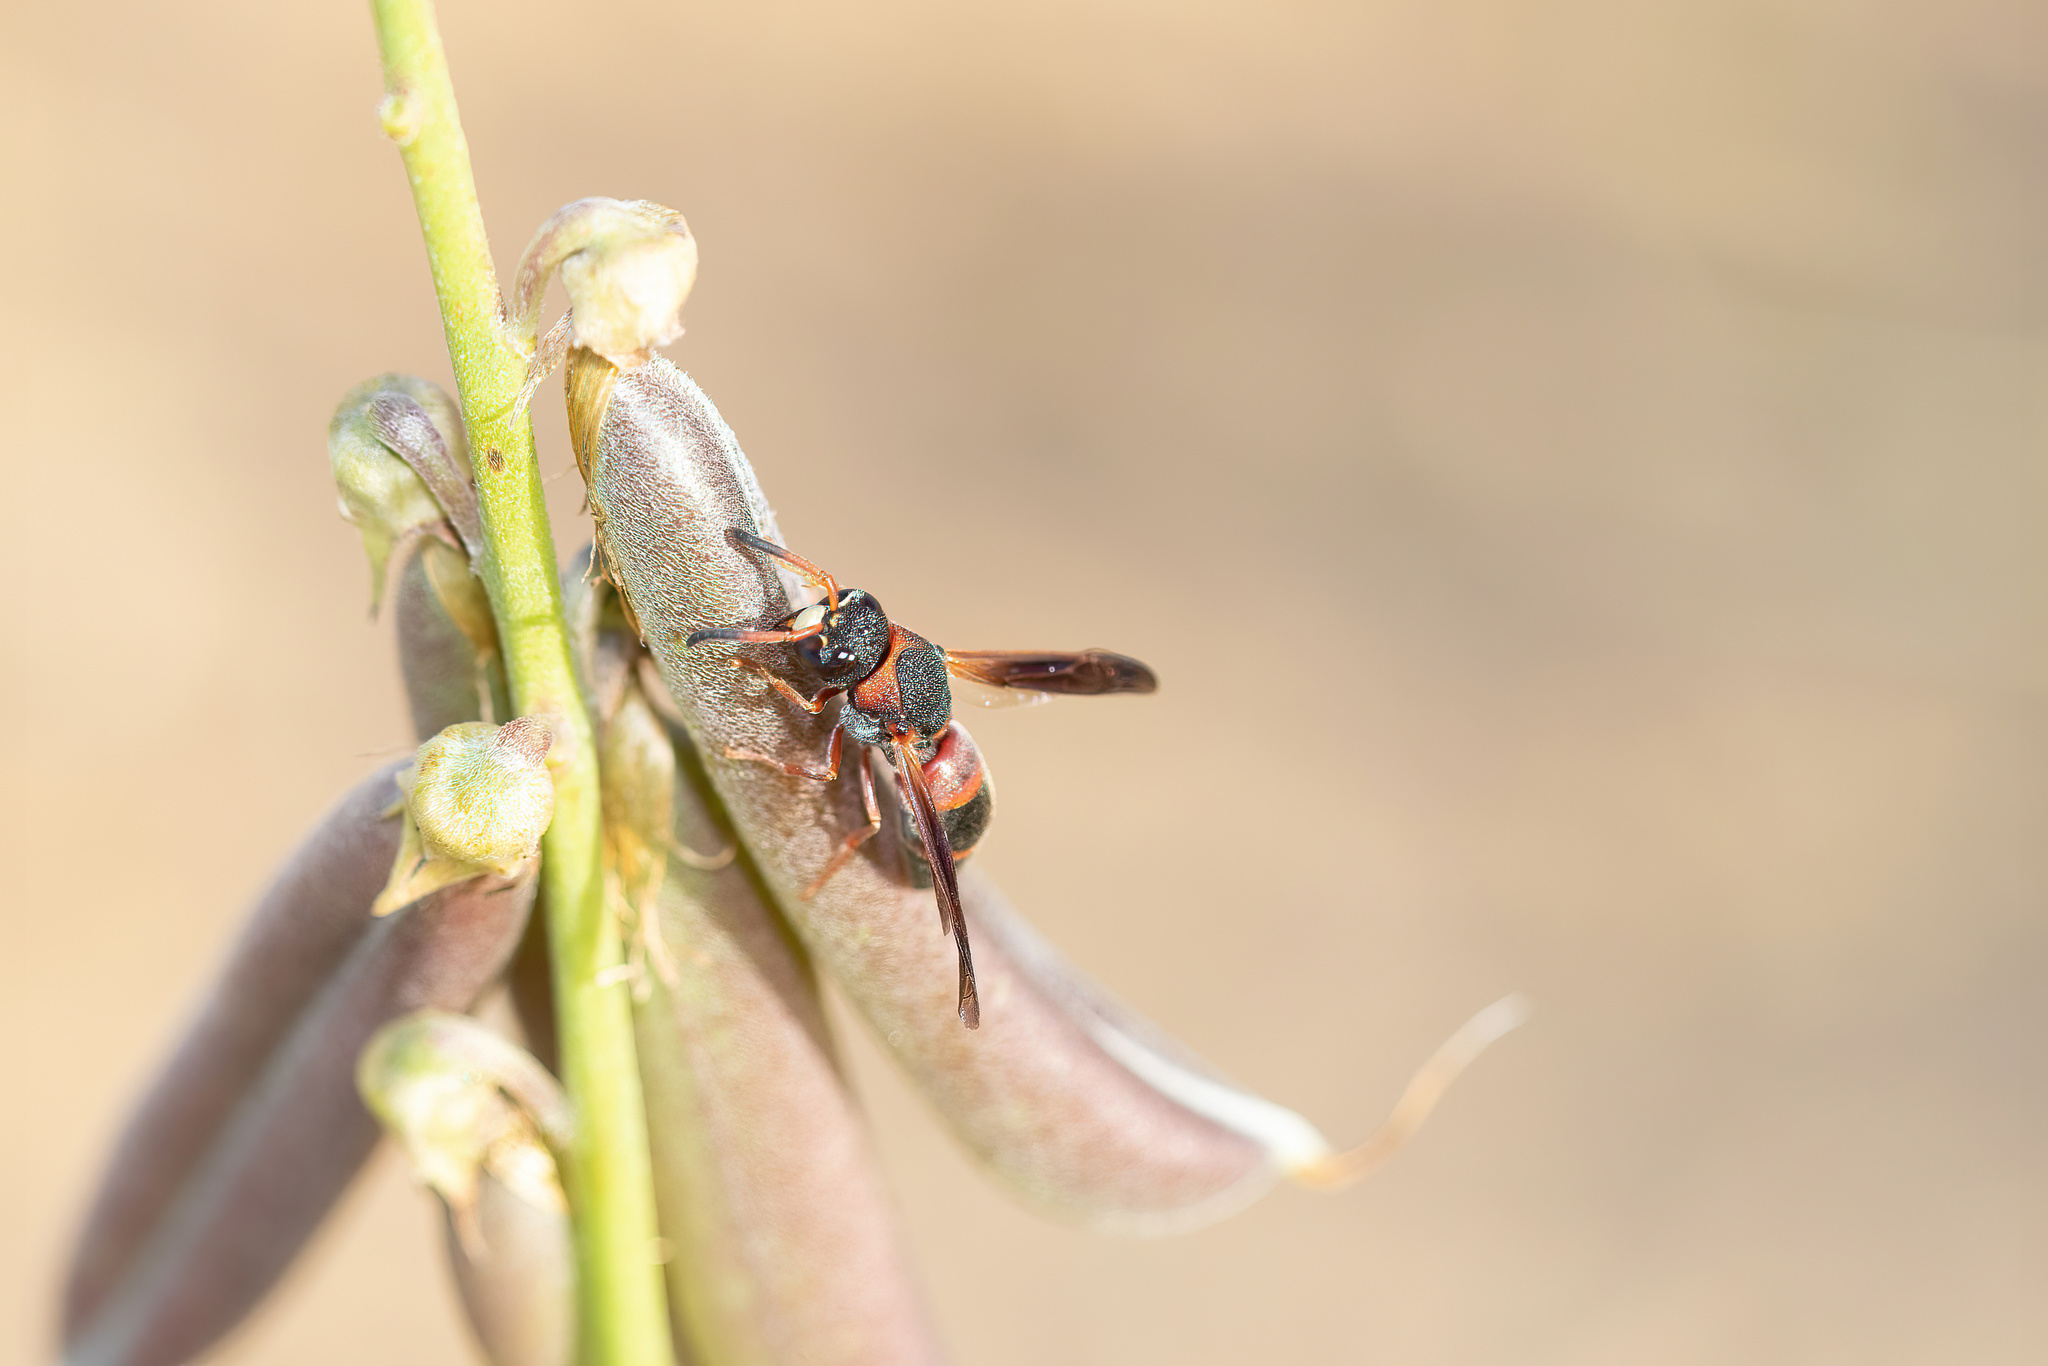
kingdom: Animalia
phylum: Arthropoda
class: Insecta
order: Hymenoptera
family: Eumenidae
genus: Pachodynerus
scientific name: Pachodynerus erynnis
